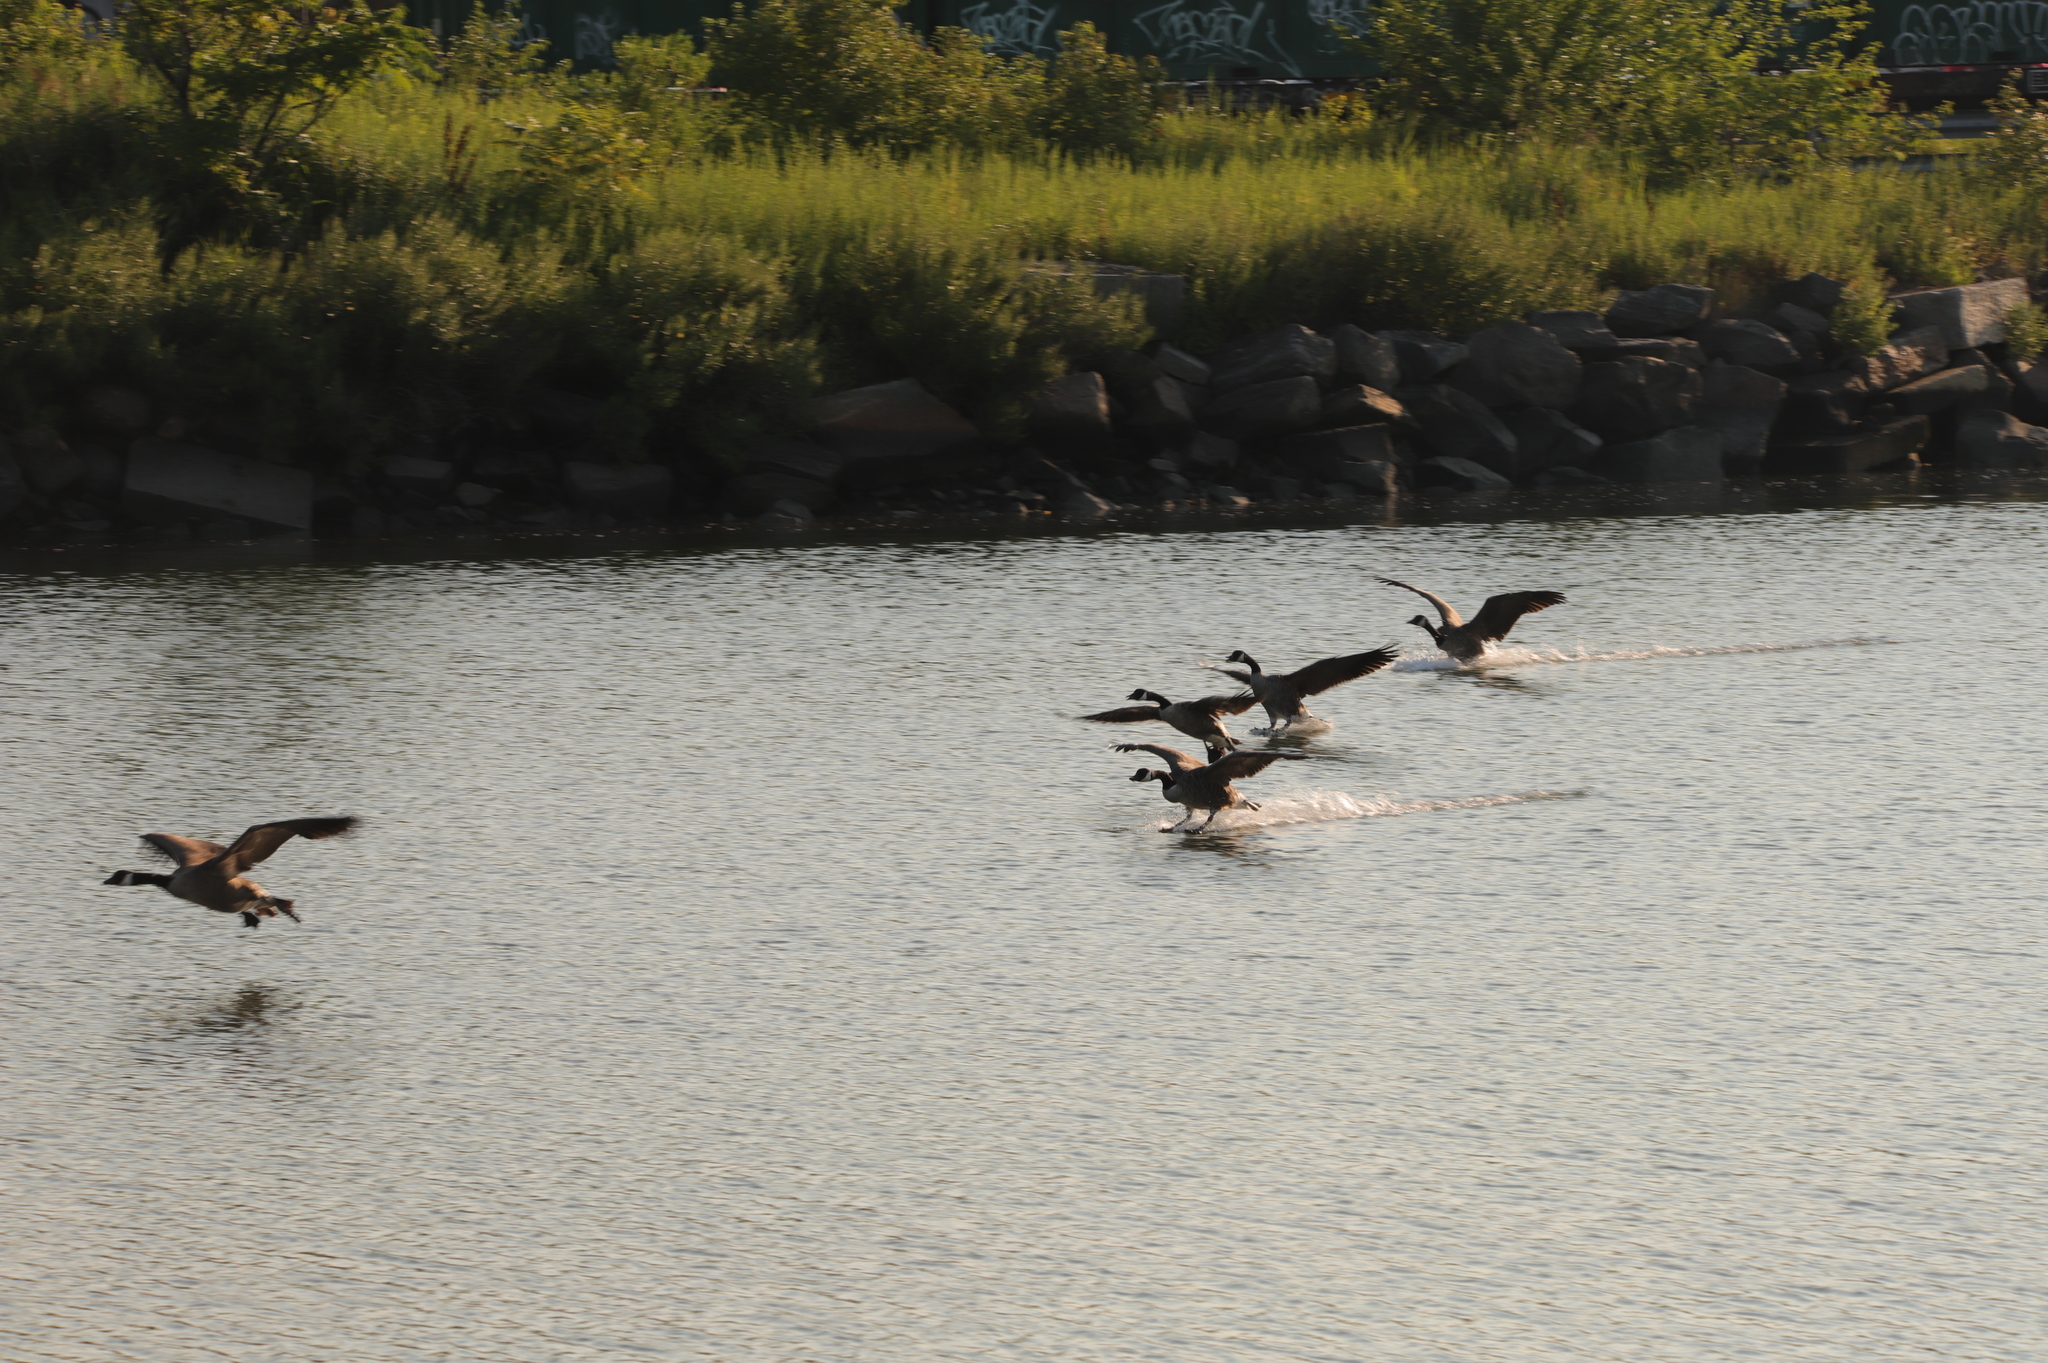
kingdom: Animalia
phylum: Chordata
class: Aves
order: Anseriformes
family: Anatidae
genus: Branta
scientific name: Branta canadensis
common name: Canada goose
